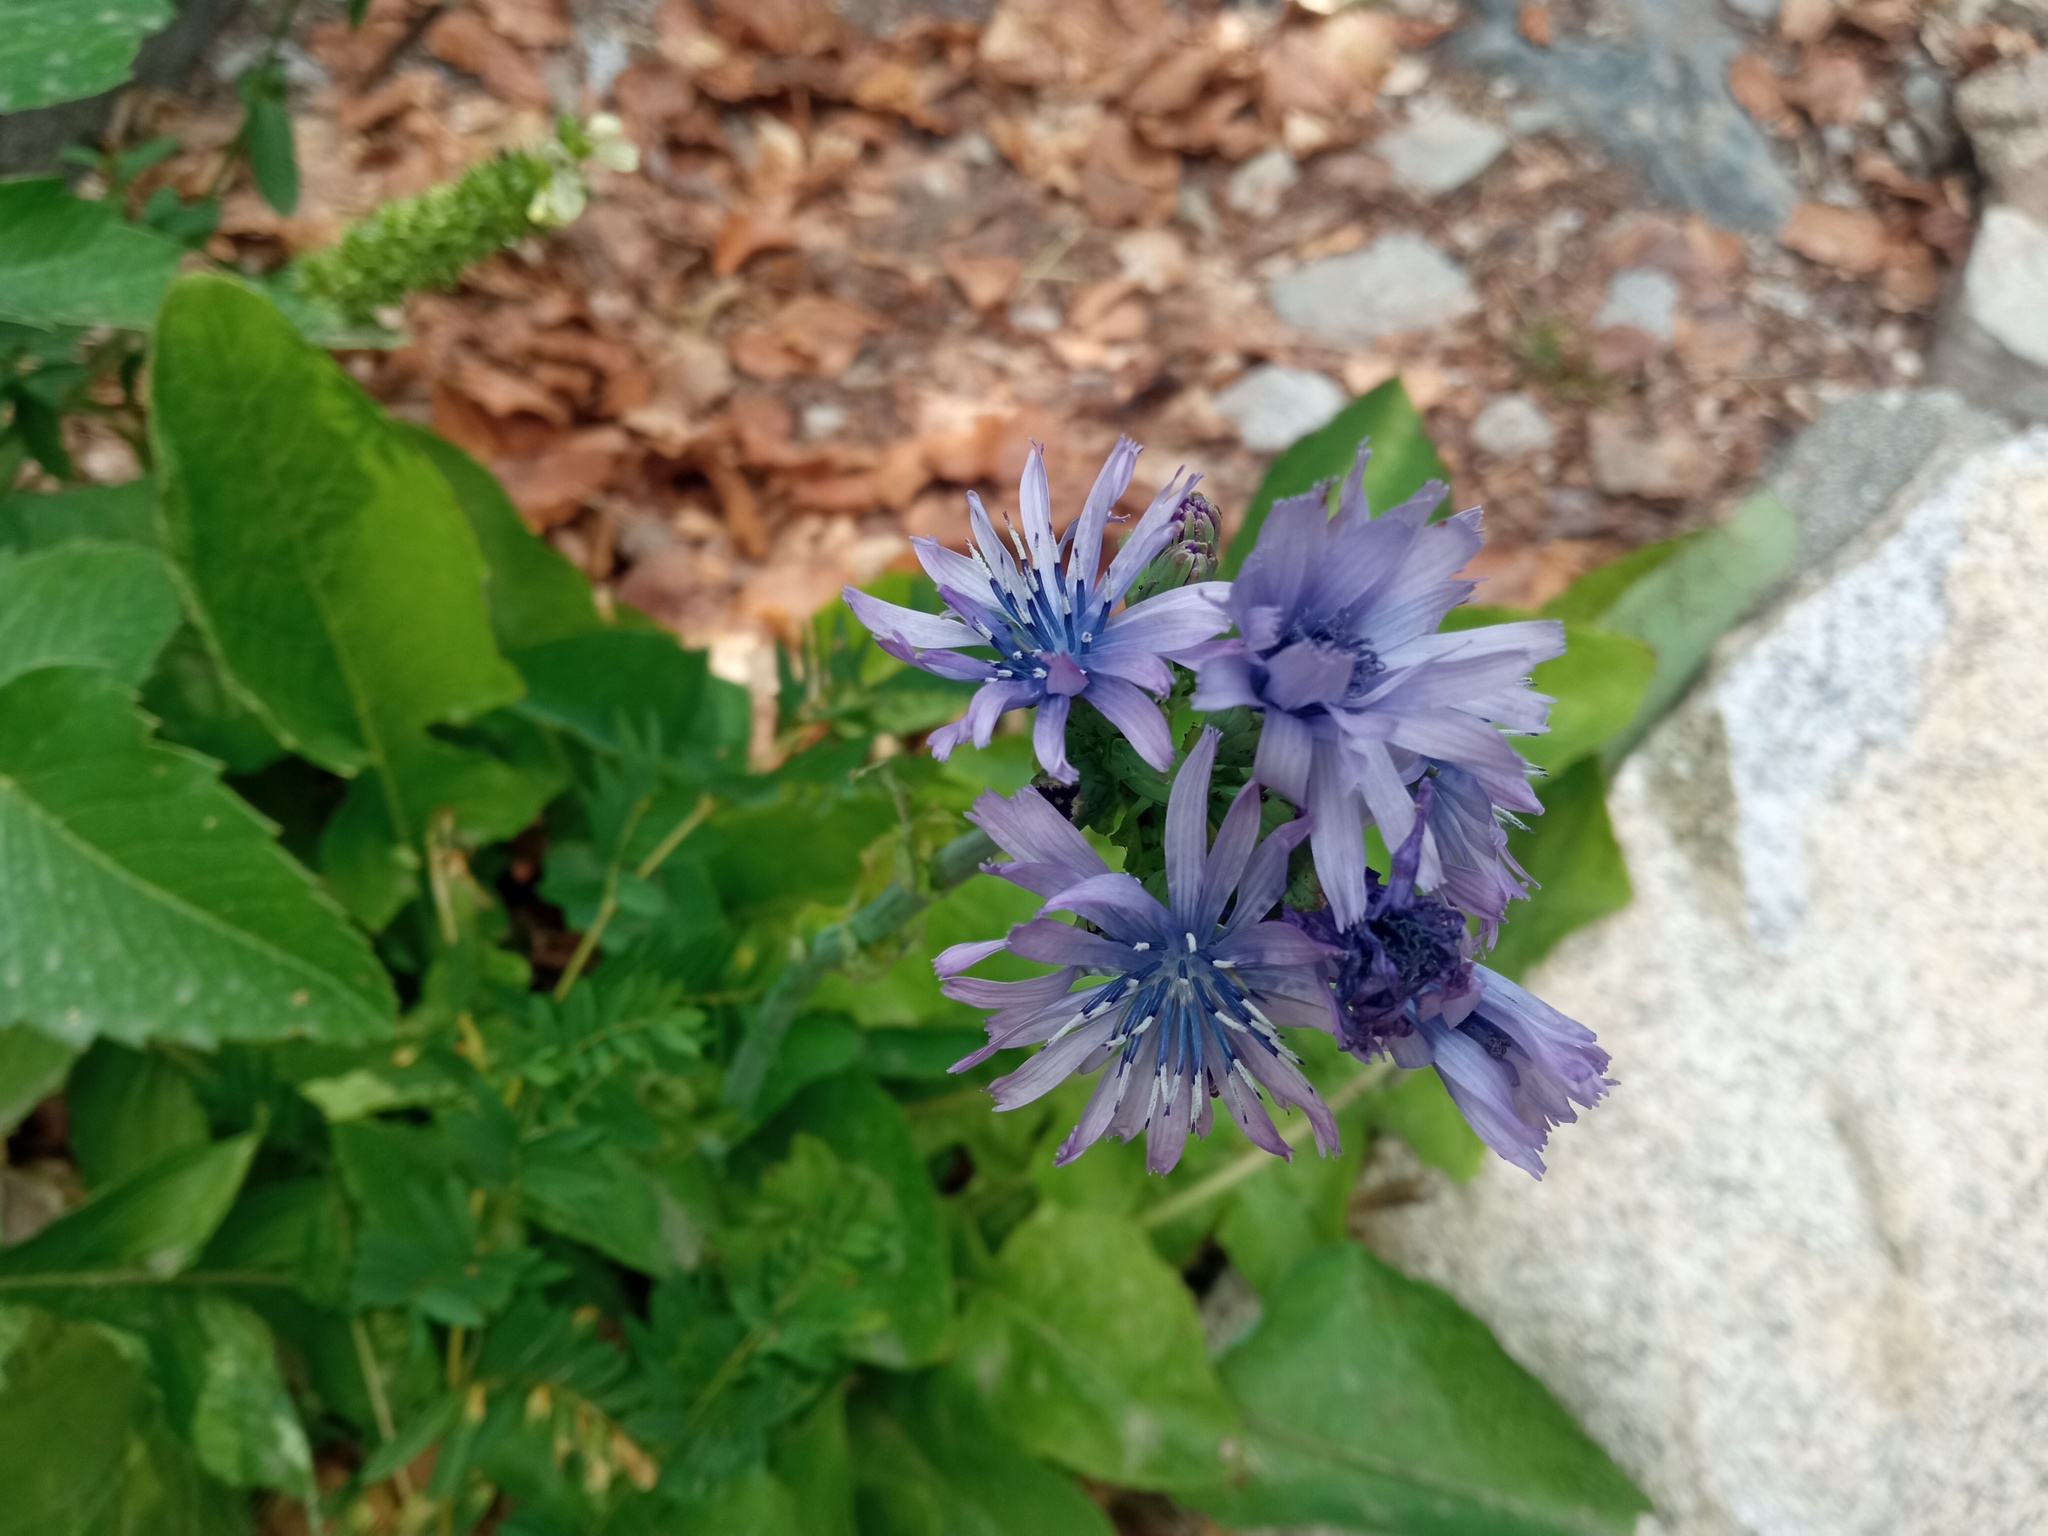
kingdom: Plantae
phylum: Tracheophyta
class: Magnoliopsida
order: Asterales
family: Asteraceae
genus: Lactuca
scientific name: Lactuca plumieri
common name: Hairless blue-sow-thistle
